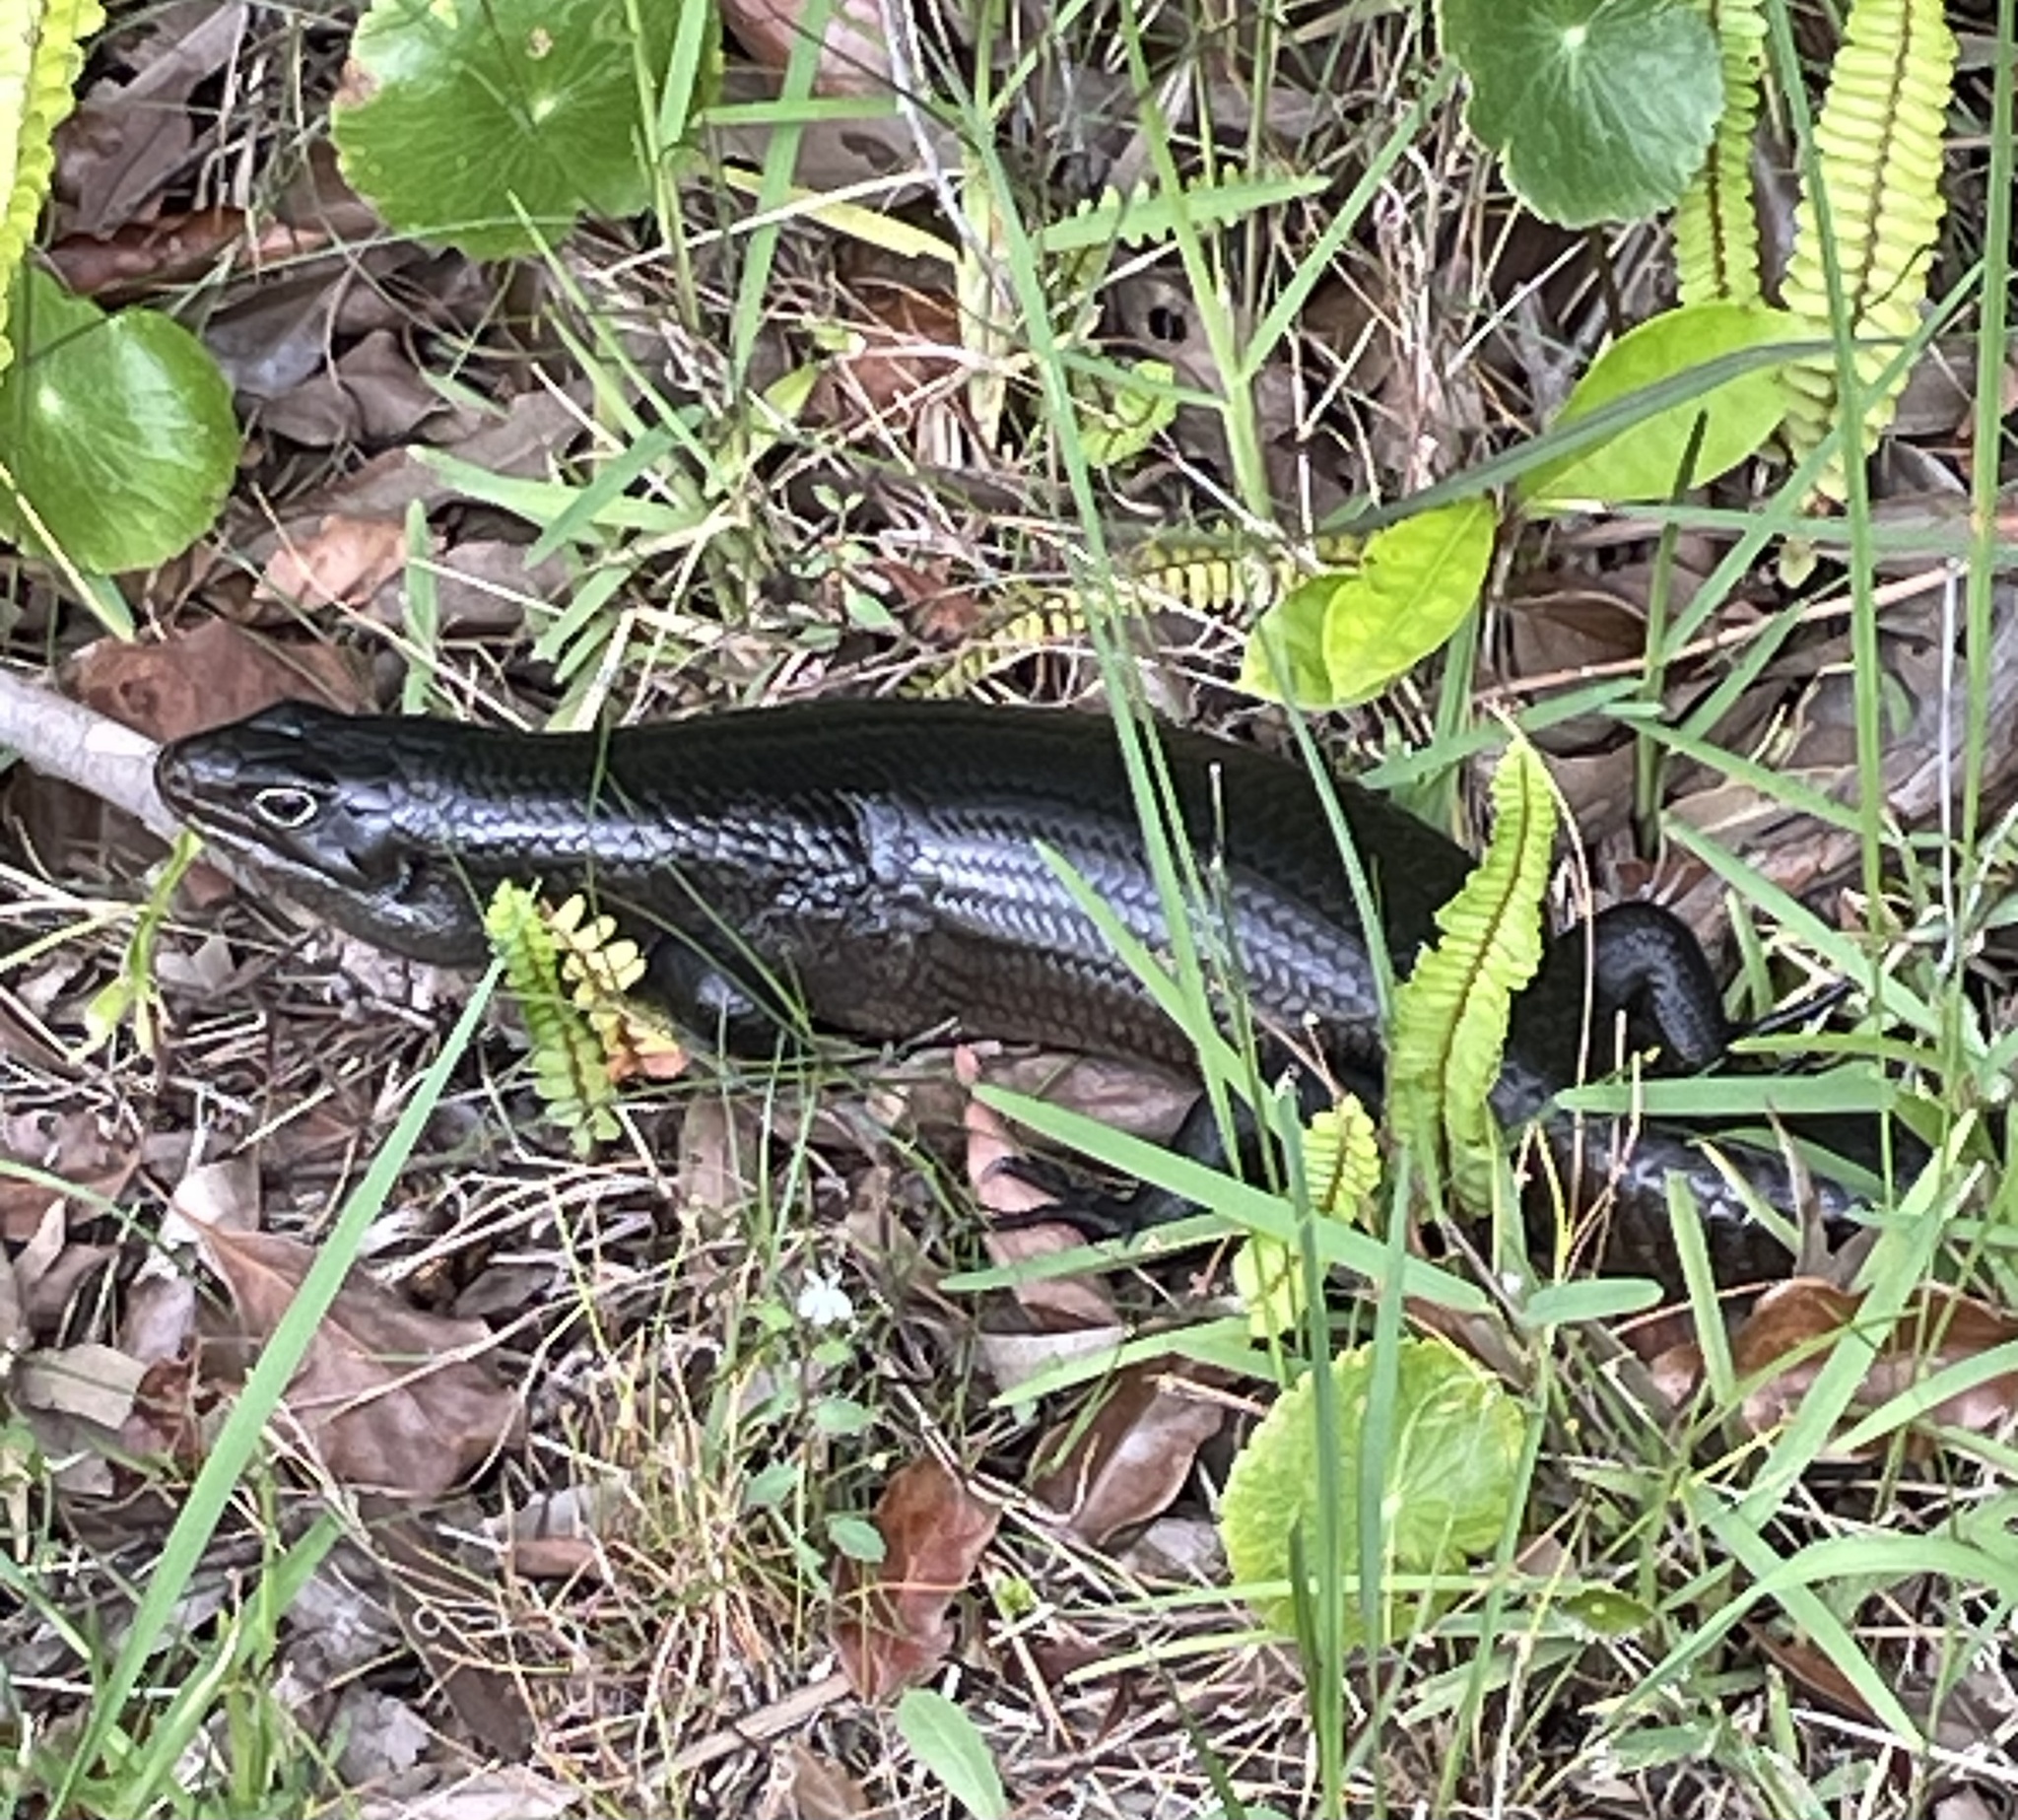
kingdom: Animalia
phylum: Chordata
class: Squamata
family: Scincidae
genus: Bellatorias
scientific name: Bellatorias major
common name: Land mullet
